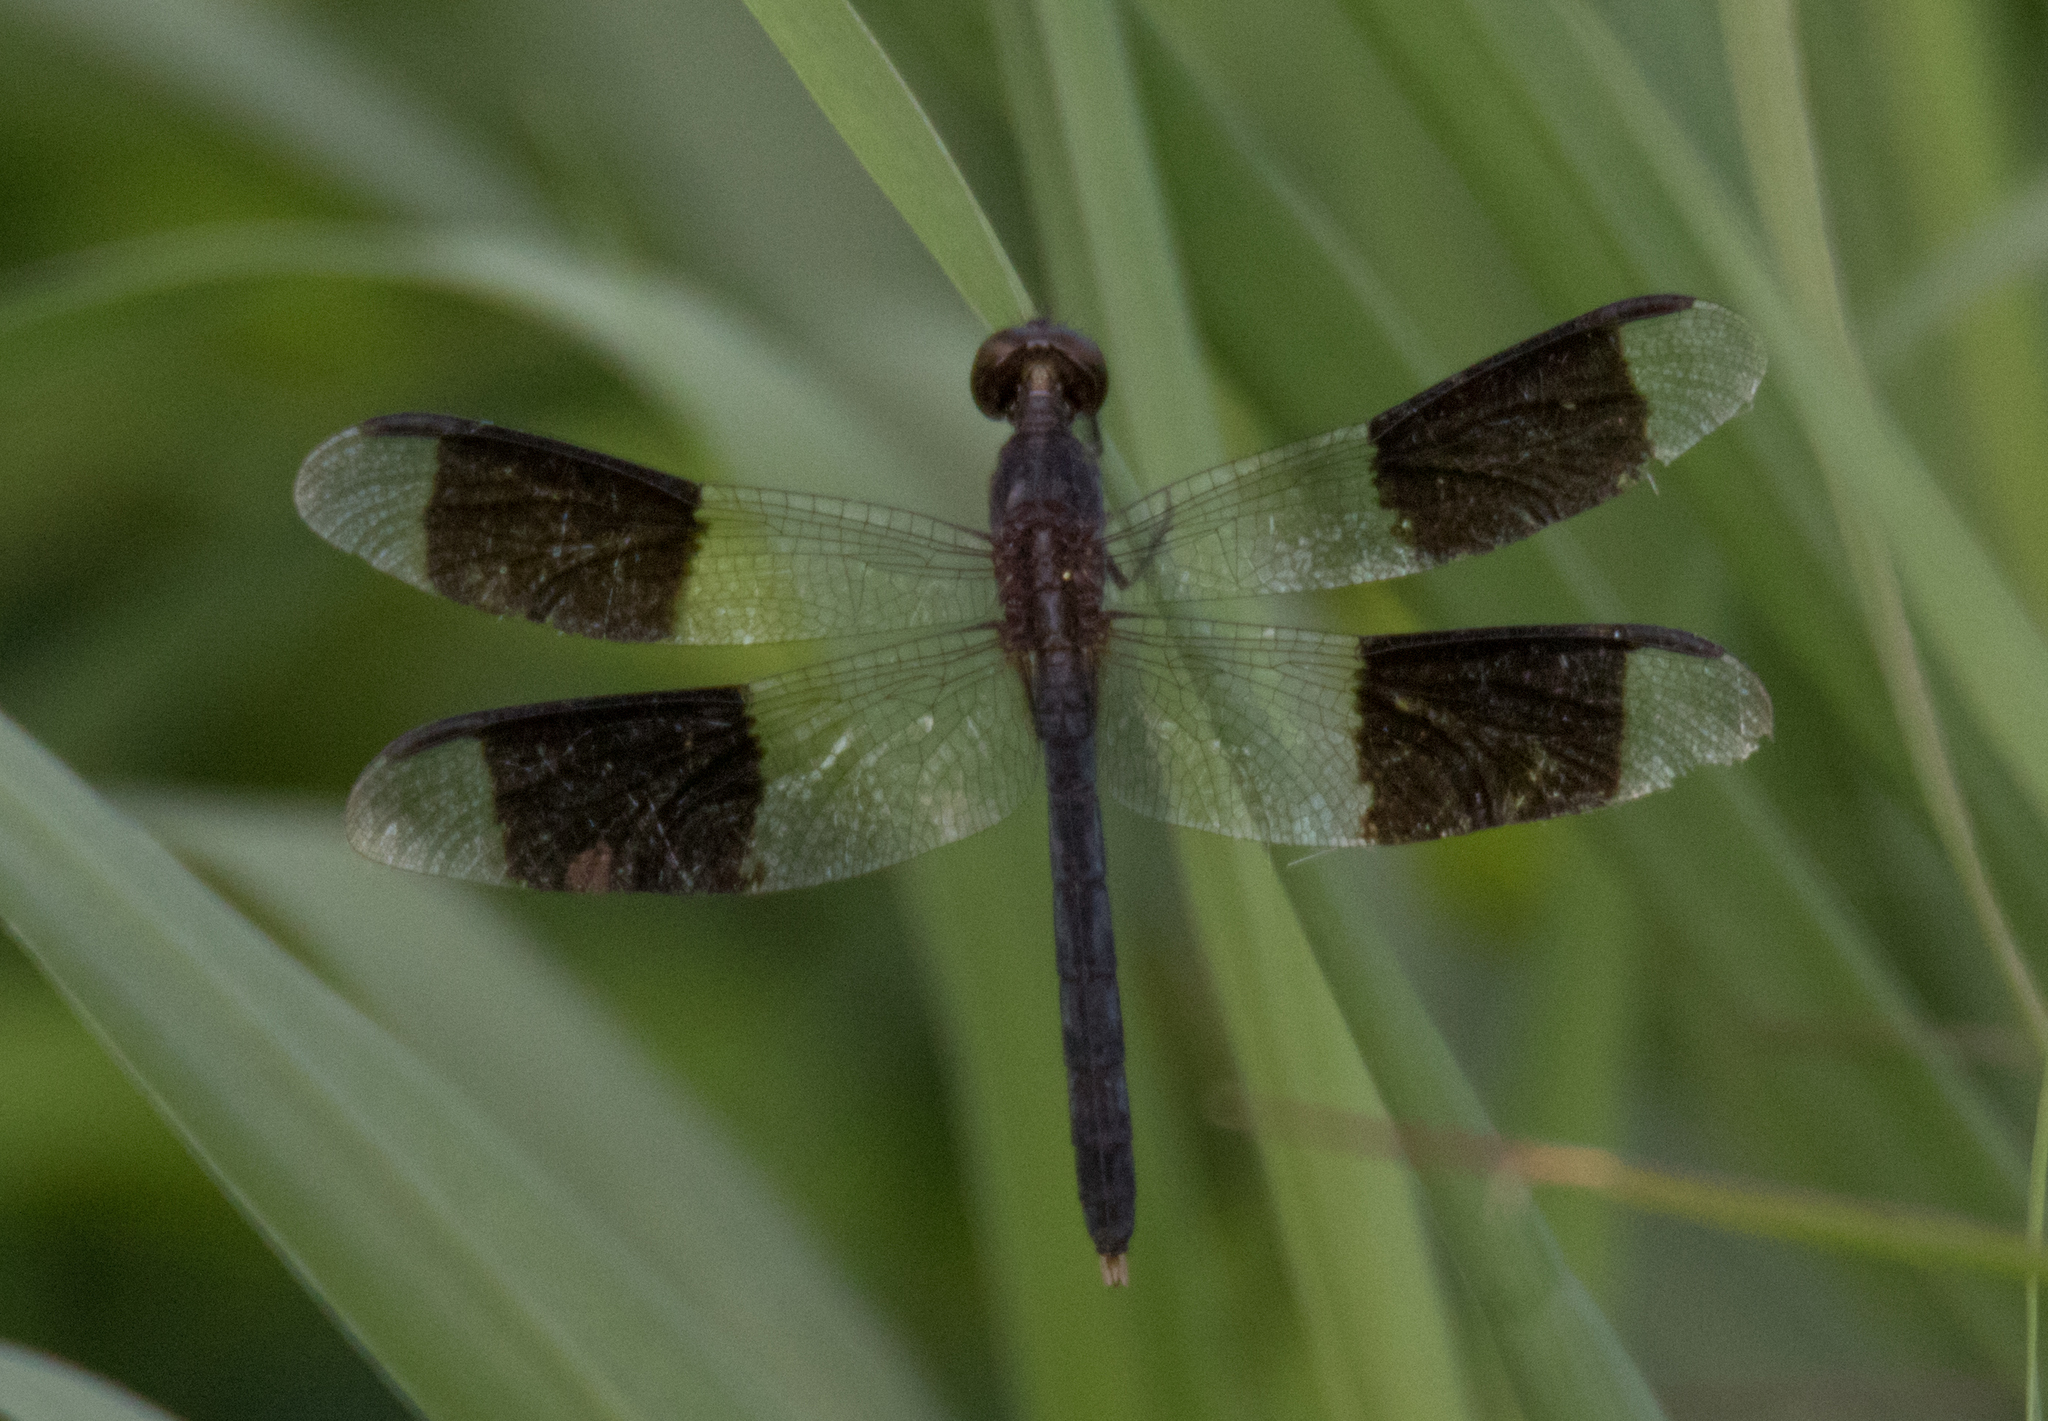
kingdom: Animalia
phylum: Arthropoda
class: Insecta
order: Odonata
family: Libellulidae
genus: Erythrodiplax
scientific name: Erythrodiplax umbrata
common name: Band-winged dragonlet
